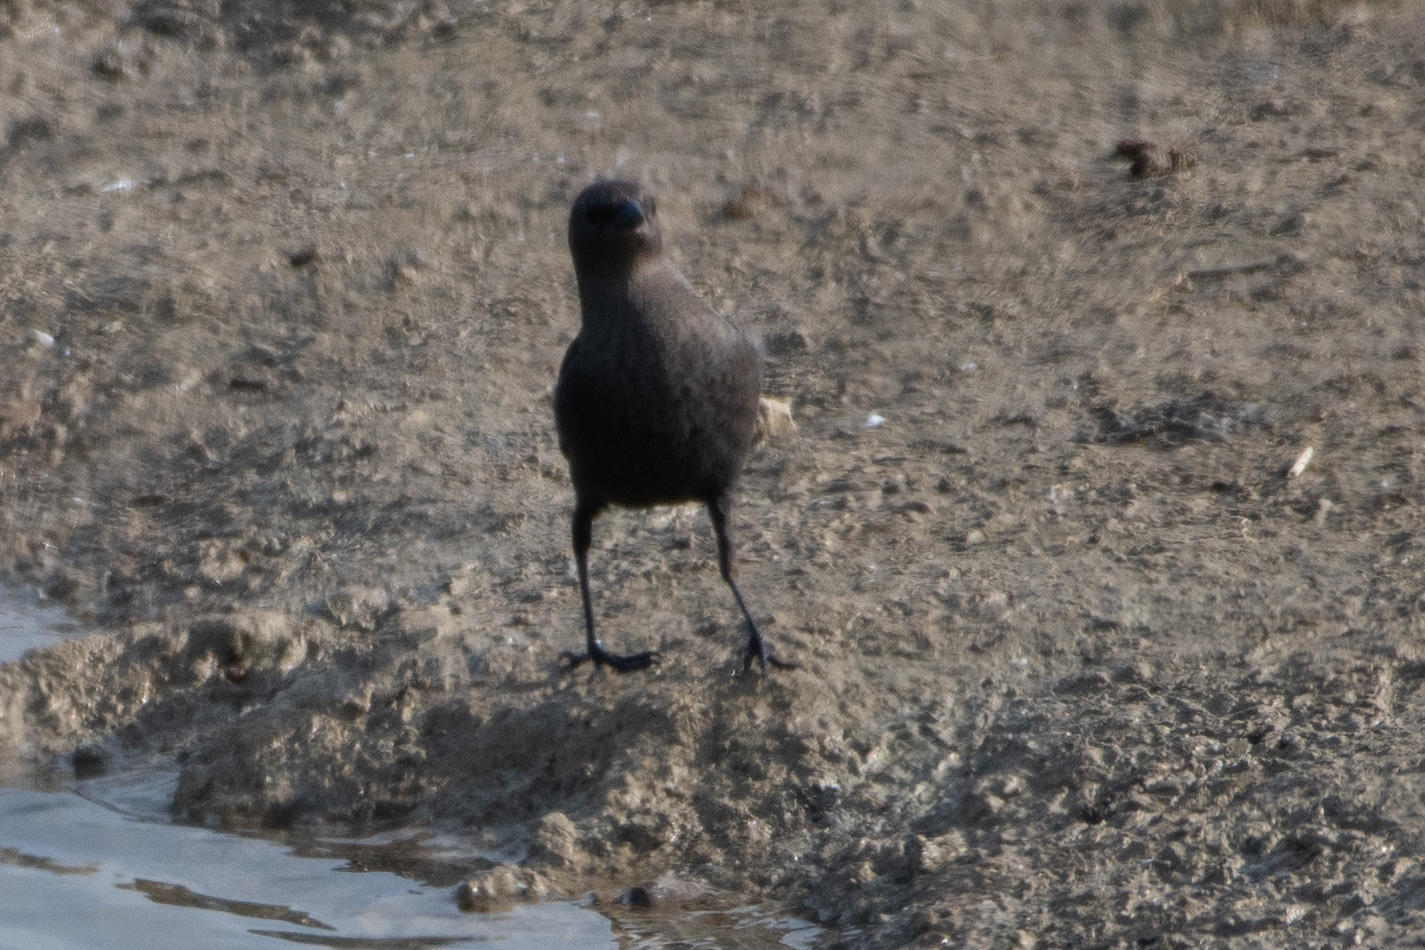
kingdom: Animalia
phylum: Chordata
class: Aves
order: Passeriformes
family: Icteridae
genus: Euphagus
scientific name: Euphagus cyanocephalus
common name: Brewer's blackbird
